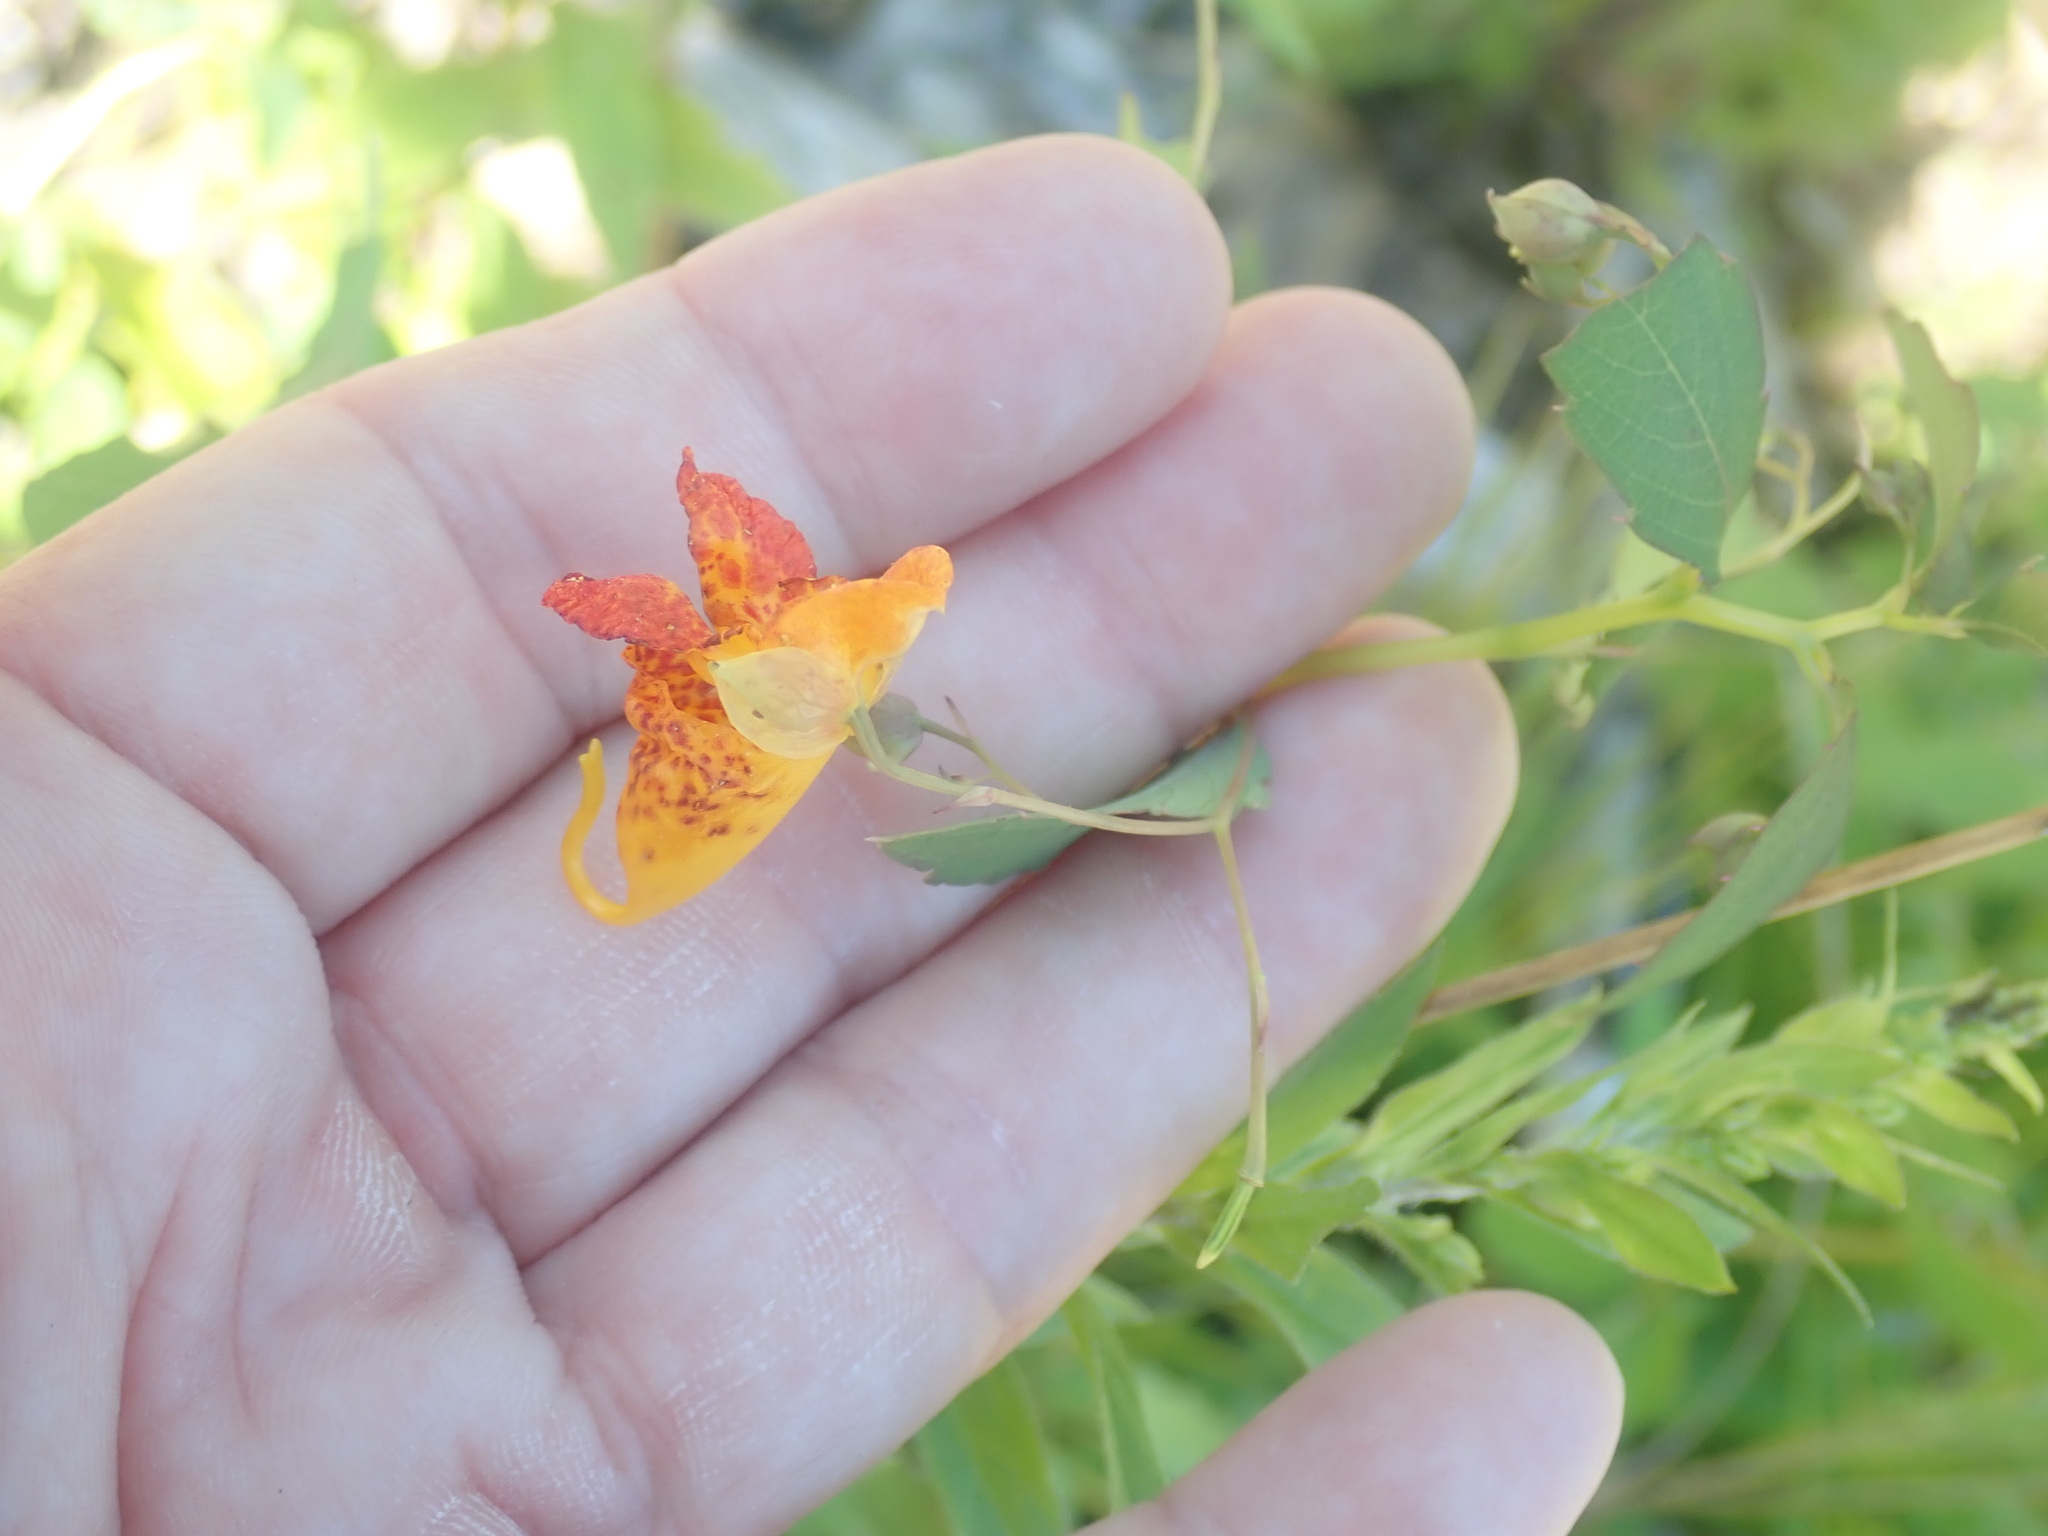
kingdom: Plantae
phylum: Tracheophyta
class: Magnoliopsida
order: Ericales
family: Balsaminaceae
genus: Impatiens
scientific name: Impatiens capensis
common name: Orange balsam
